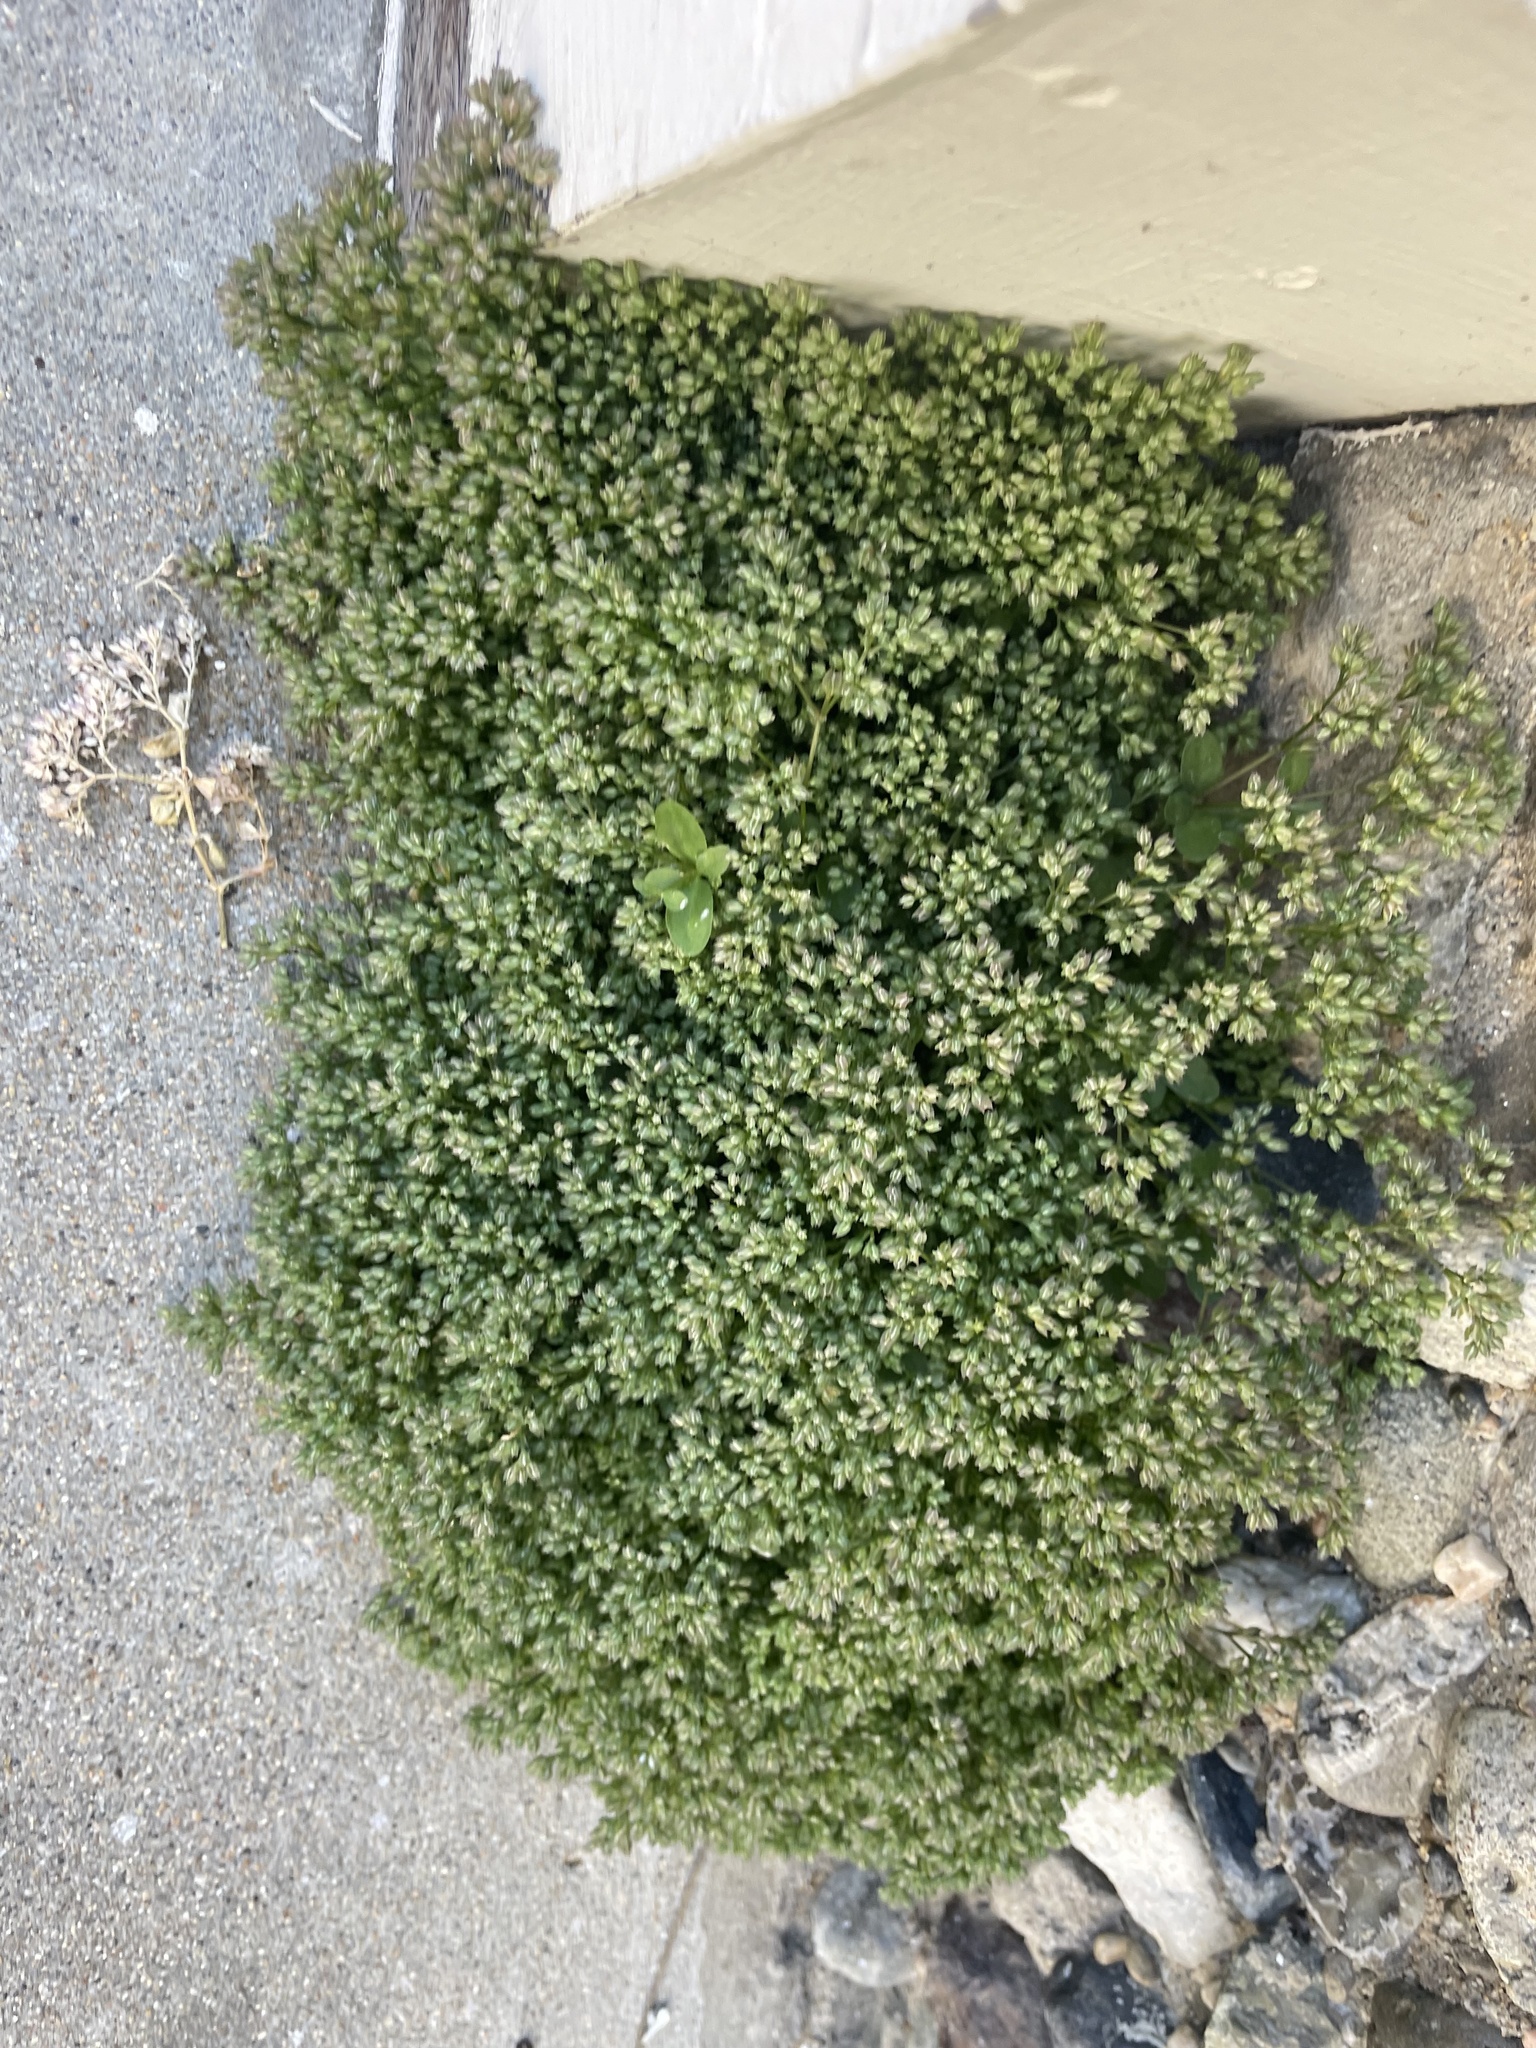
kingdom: Plantae
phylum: Tracheophyta
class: Magnoliopsida
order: Caryophyllales
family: Caryophyllaceae
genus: Polycarpon
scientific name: Polycarpon tetraphyllum
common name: Four-leaved all-seed
